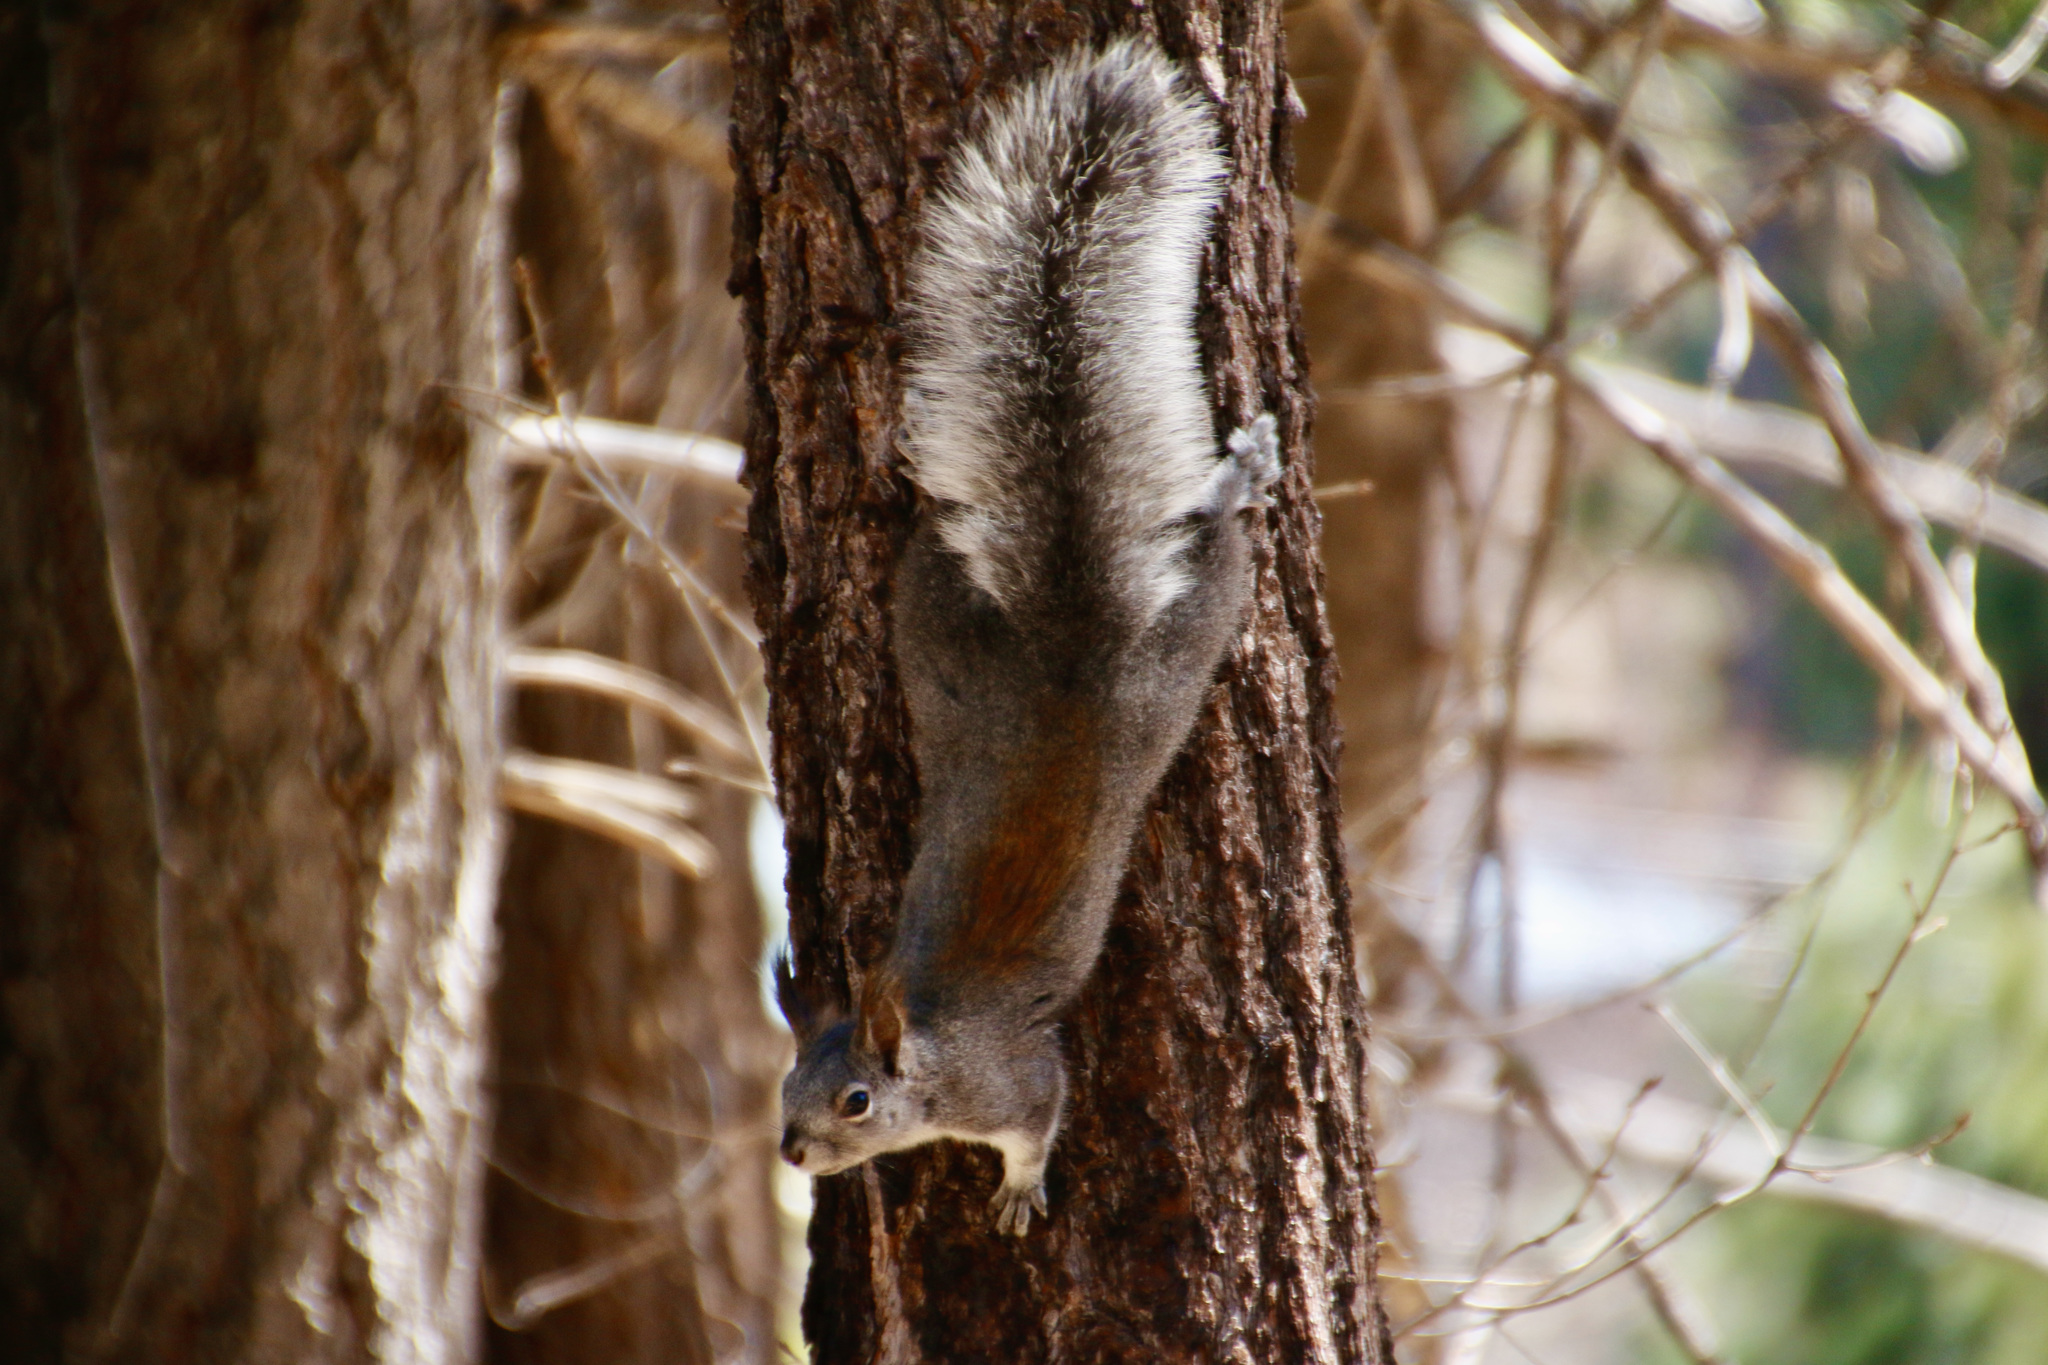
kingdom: Animalia
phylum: Chordata
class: Mammalia
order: Rodentia
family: Sciuridae
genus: Sciurus
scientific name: Sciurus aberti
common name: Abert's squirrel
